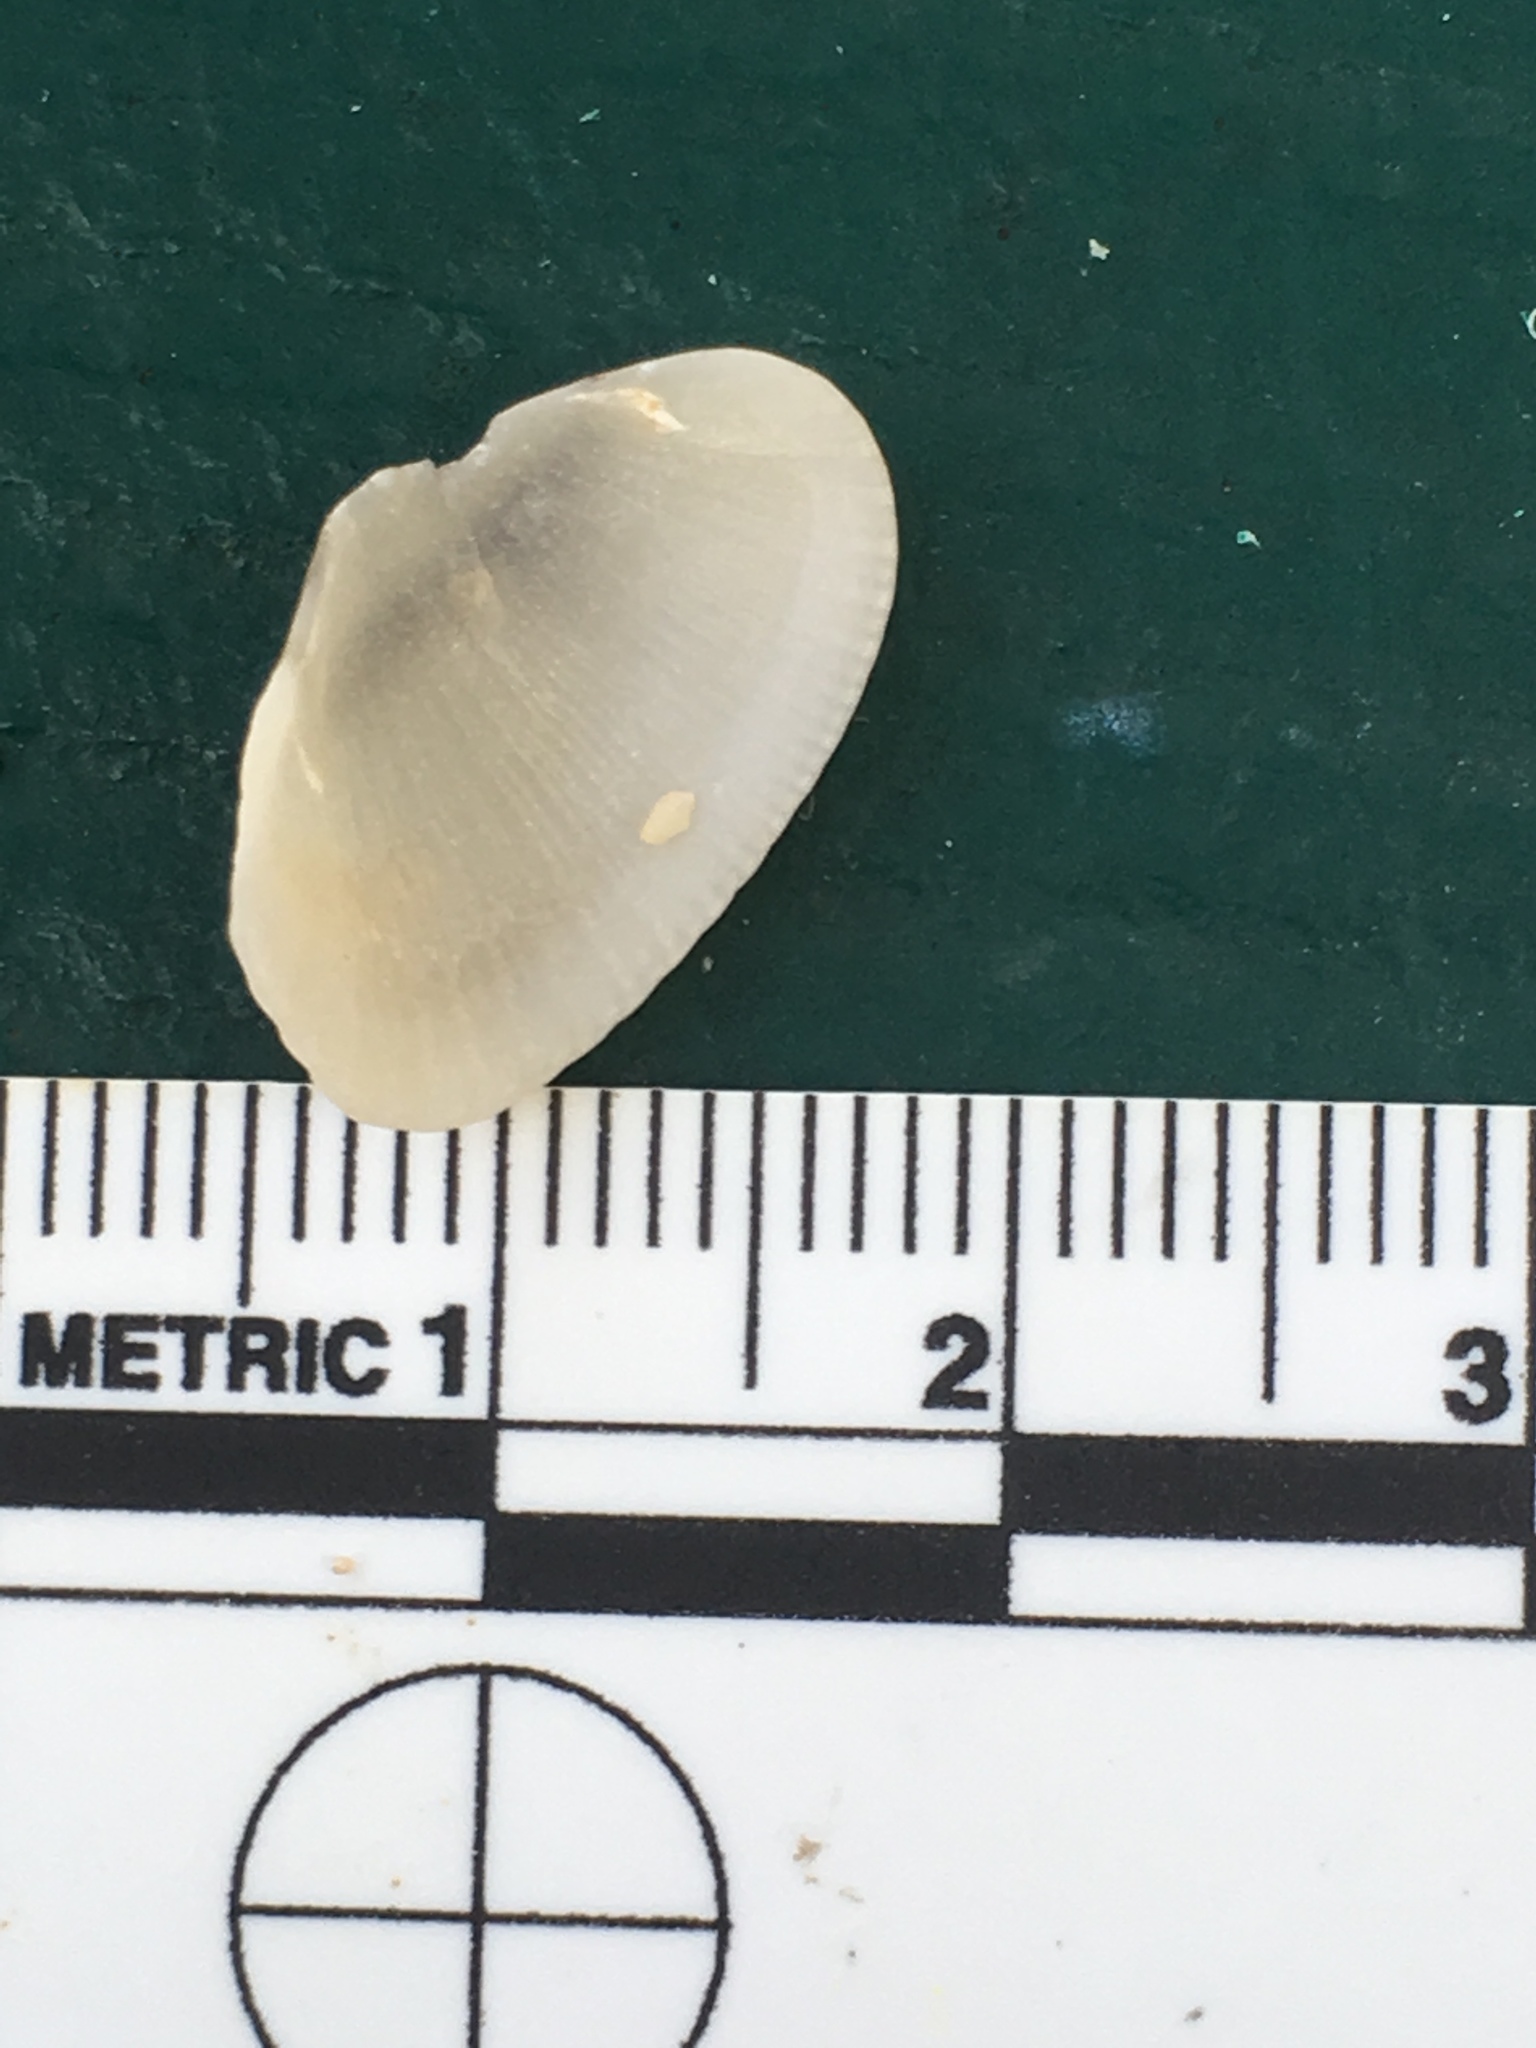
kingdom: Animalia
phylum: Mollusca
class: Bivalvia
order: Arcida
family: Arcidae
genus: Anadara
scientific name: Anadara transversa
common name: Transverse ark
